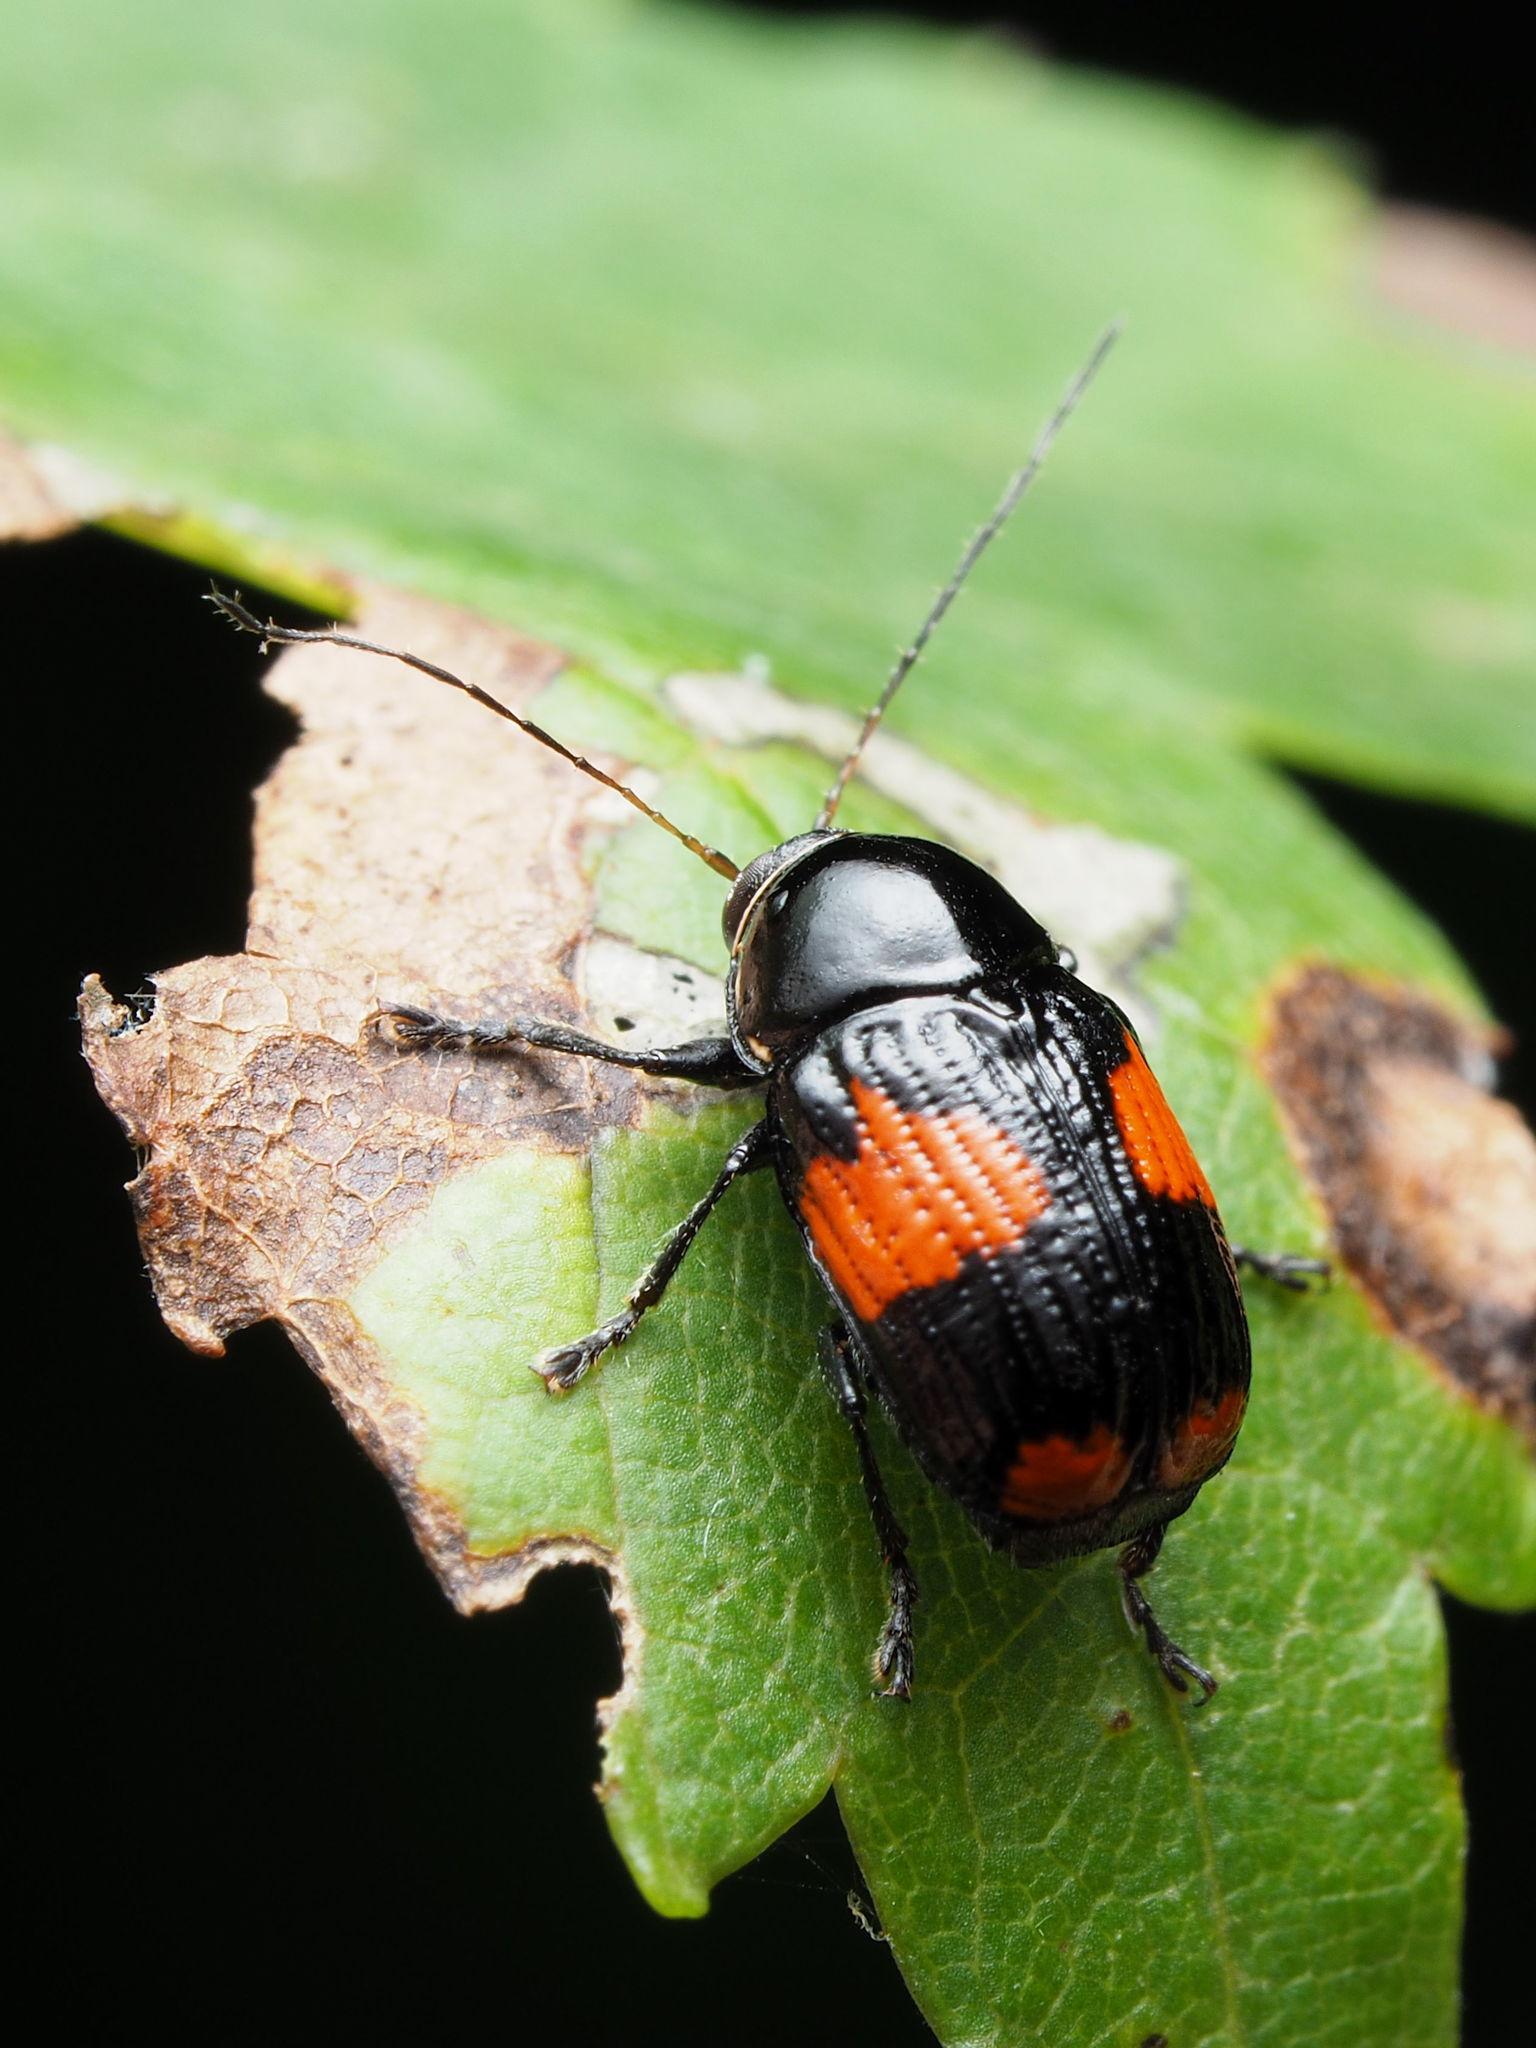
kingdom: Animalia
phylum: Arthropoda
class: Insecta
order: Coleoptera
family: Chrysomelidae
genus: Bassareus
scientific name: Bassareus mammifer
